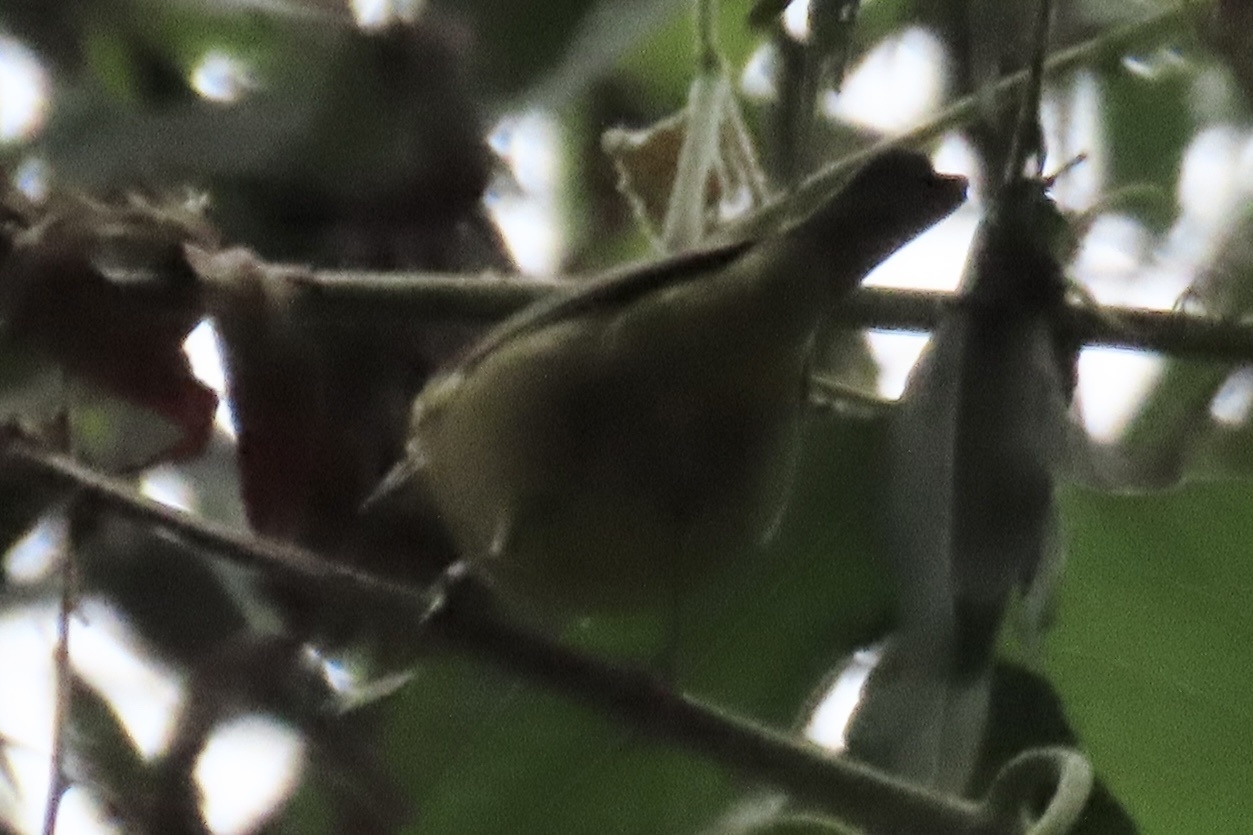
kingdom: Animalia
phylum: Chordata
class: Aves
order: Passeriformes
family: Parulidae
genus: Leiothlypis
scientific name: Leiothlypis celata
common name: Orange-crowned warbler
